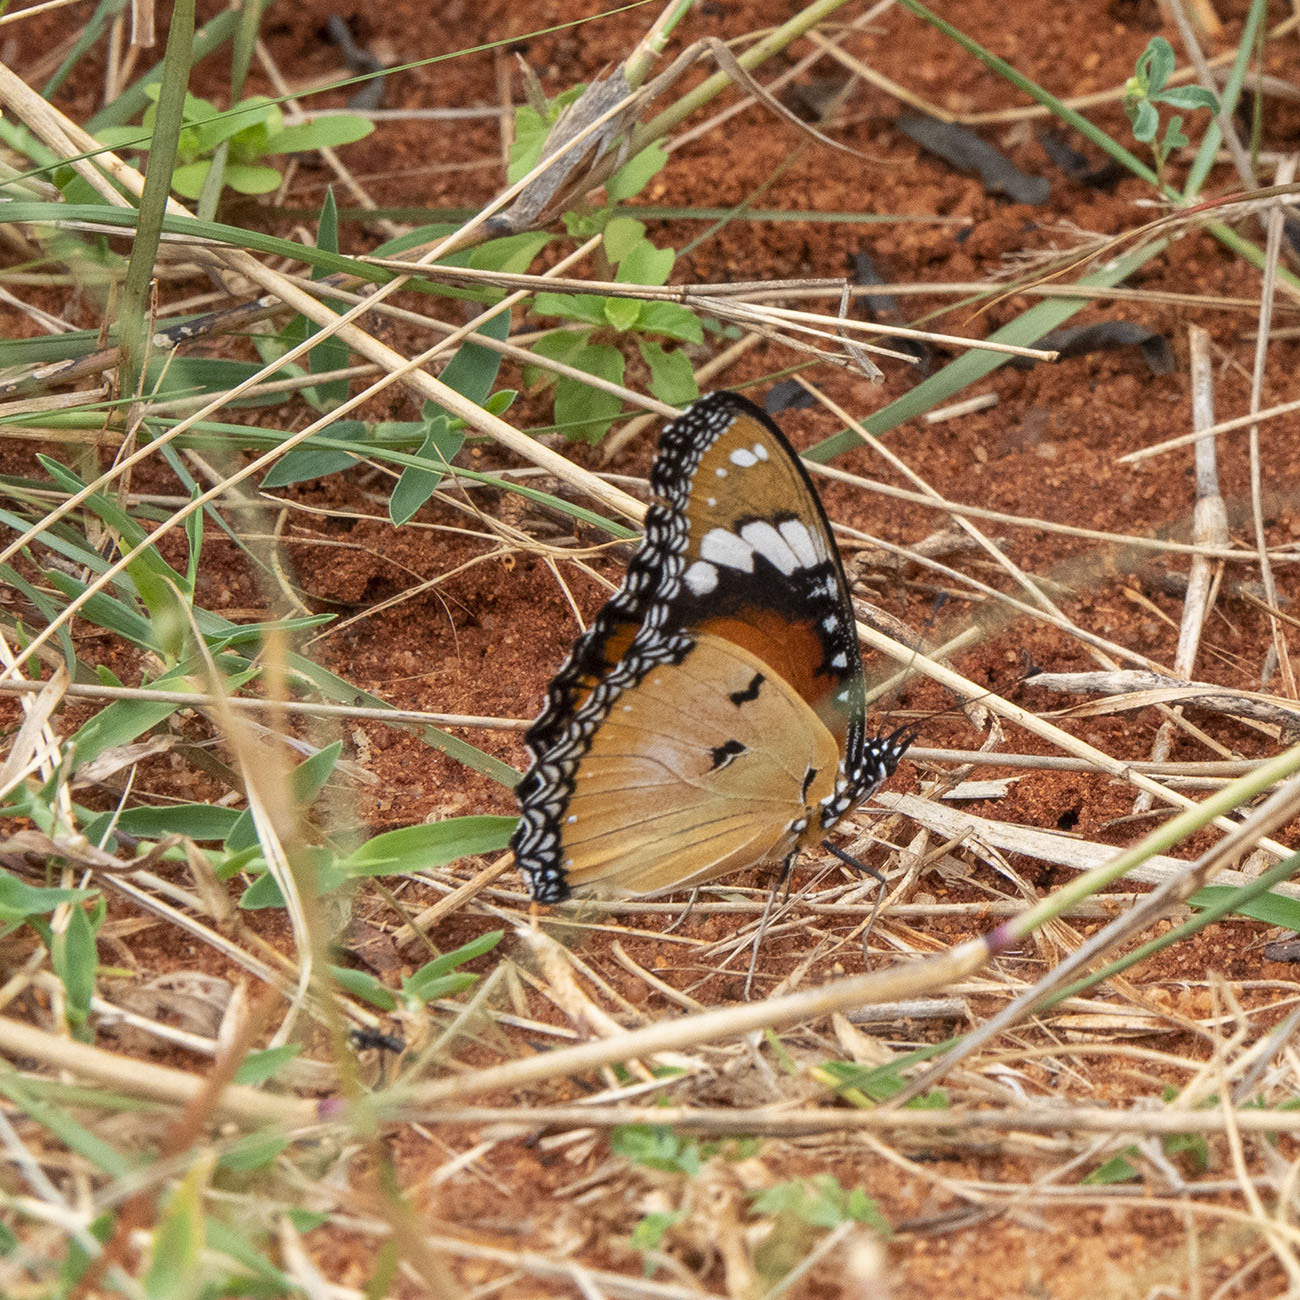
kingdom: Animalia
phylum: Arthropoda
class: Insecta
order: Lepidoptera
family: Nymphalidae
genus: Hypolimnas
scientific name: Hypolimnas misippus
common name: False plain tiger
